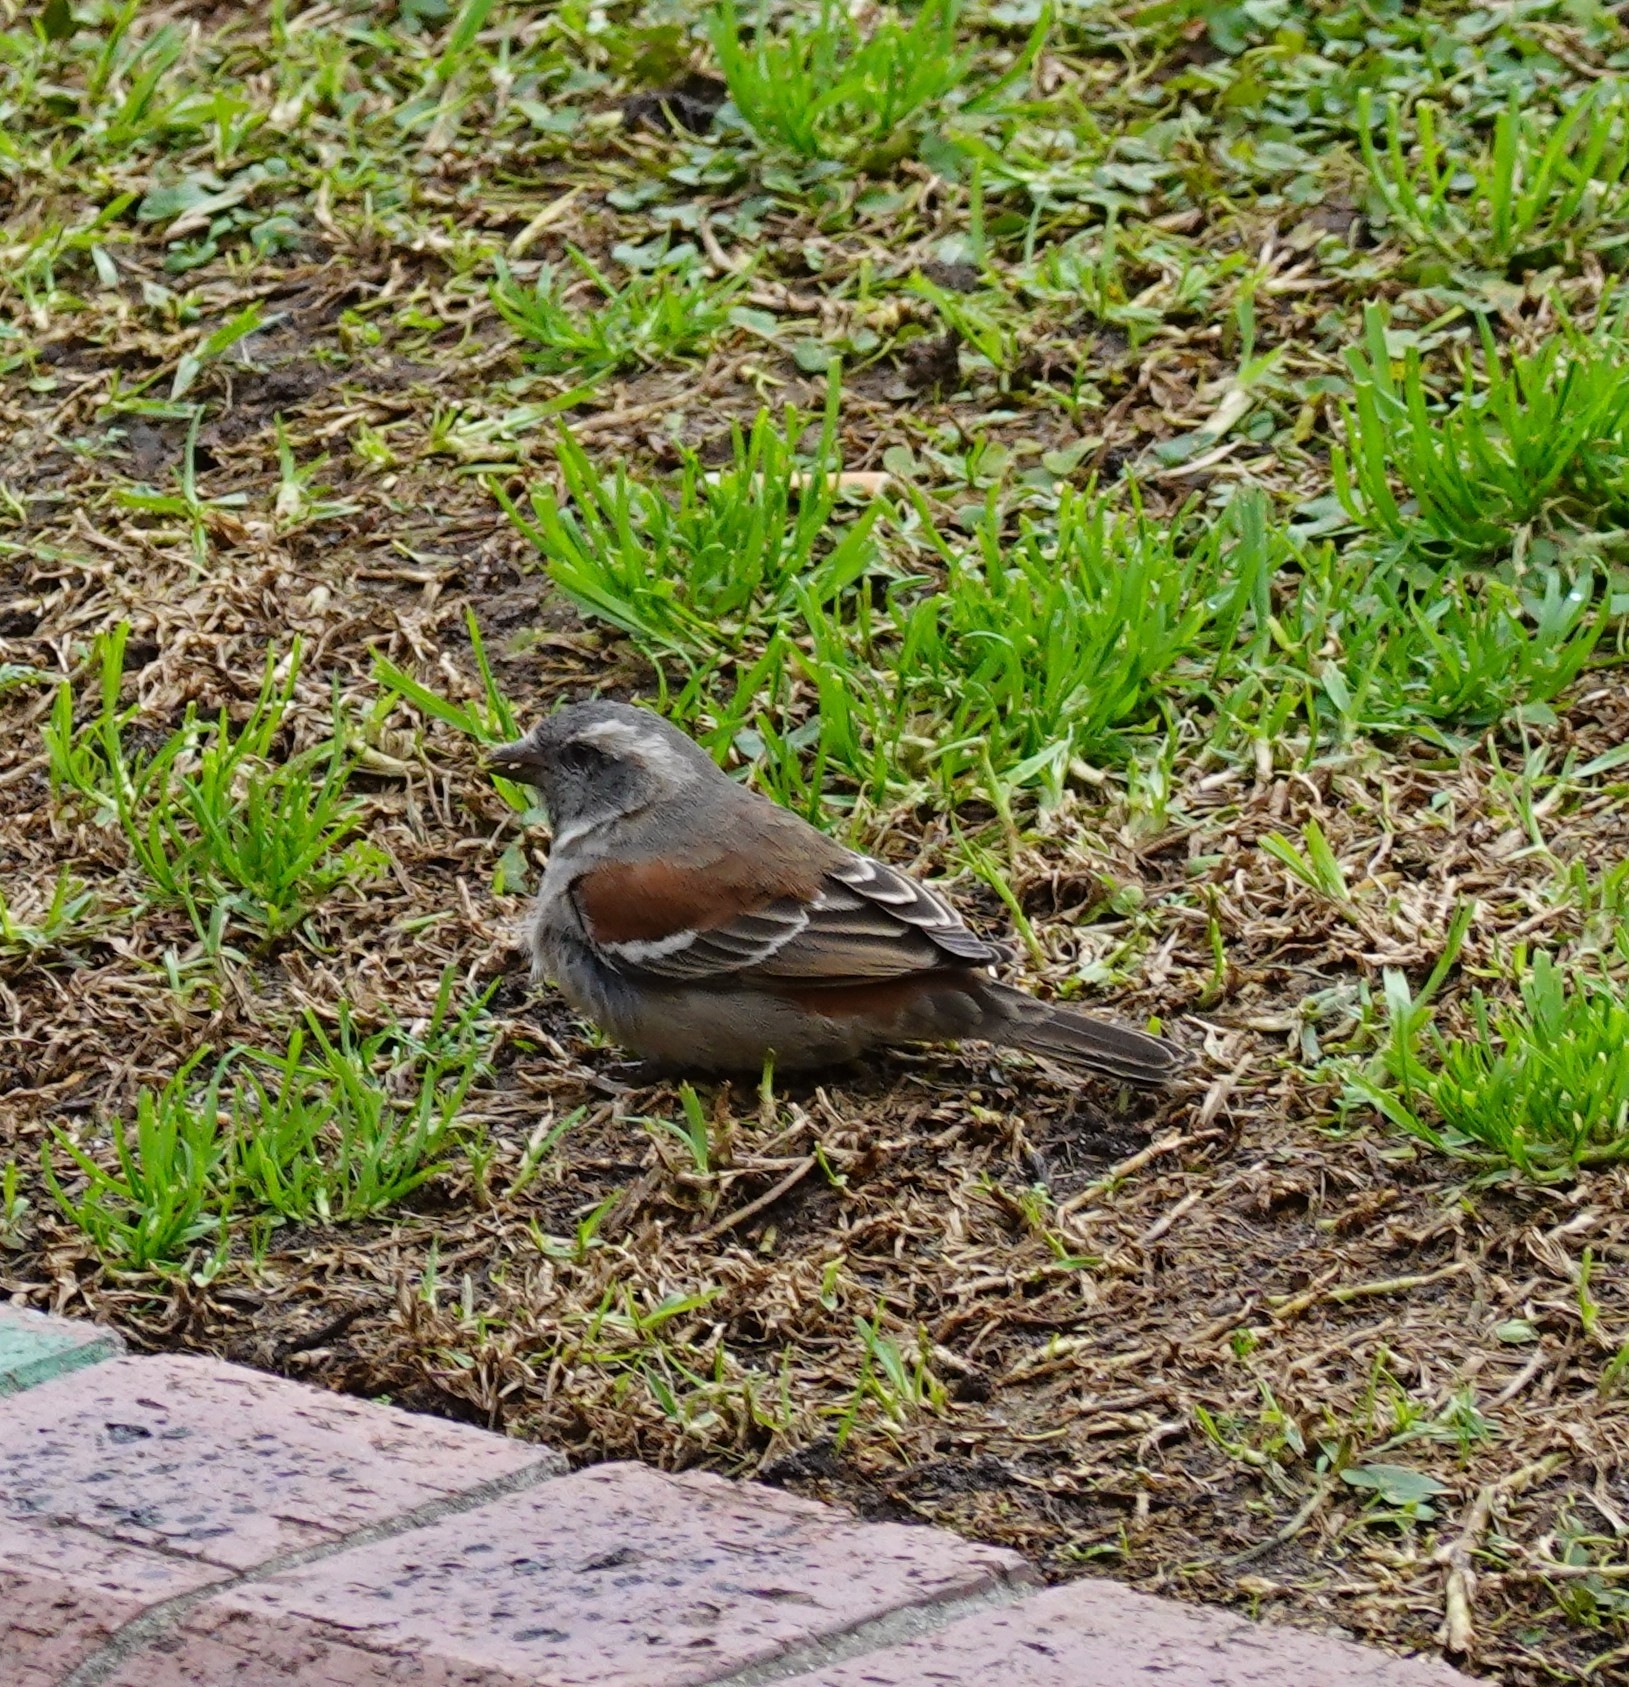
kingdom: Animalia
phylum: Chordata
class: Aves
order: Passeriformes
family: Passeridae
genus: Passer
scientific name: Passer melanurus
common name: Cape sparrow
